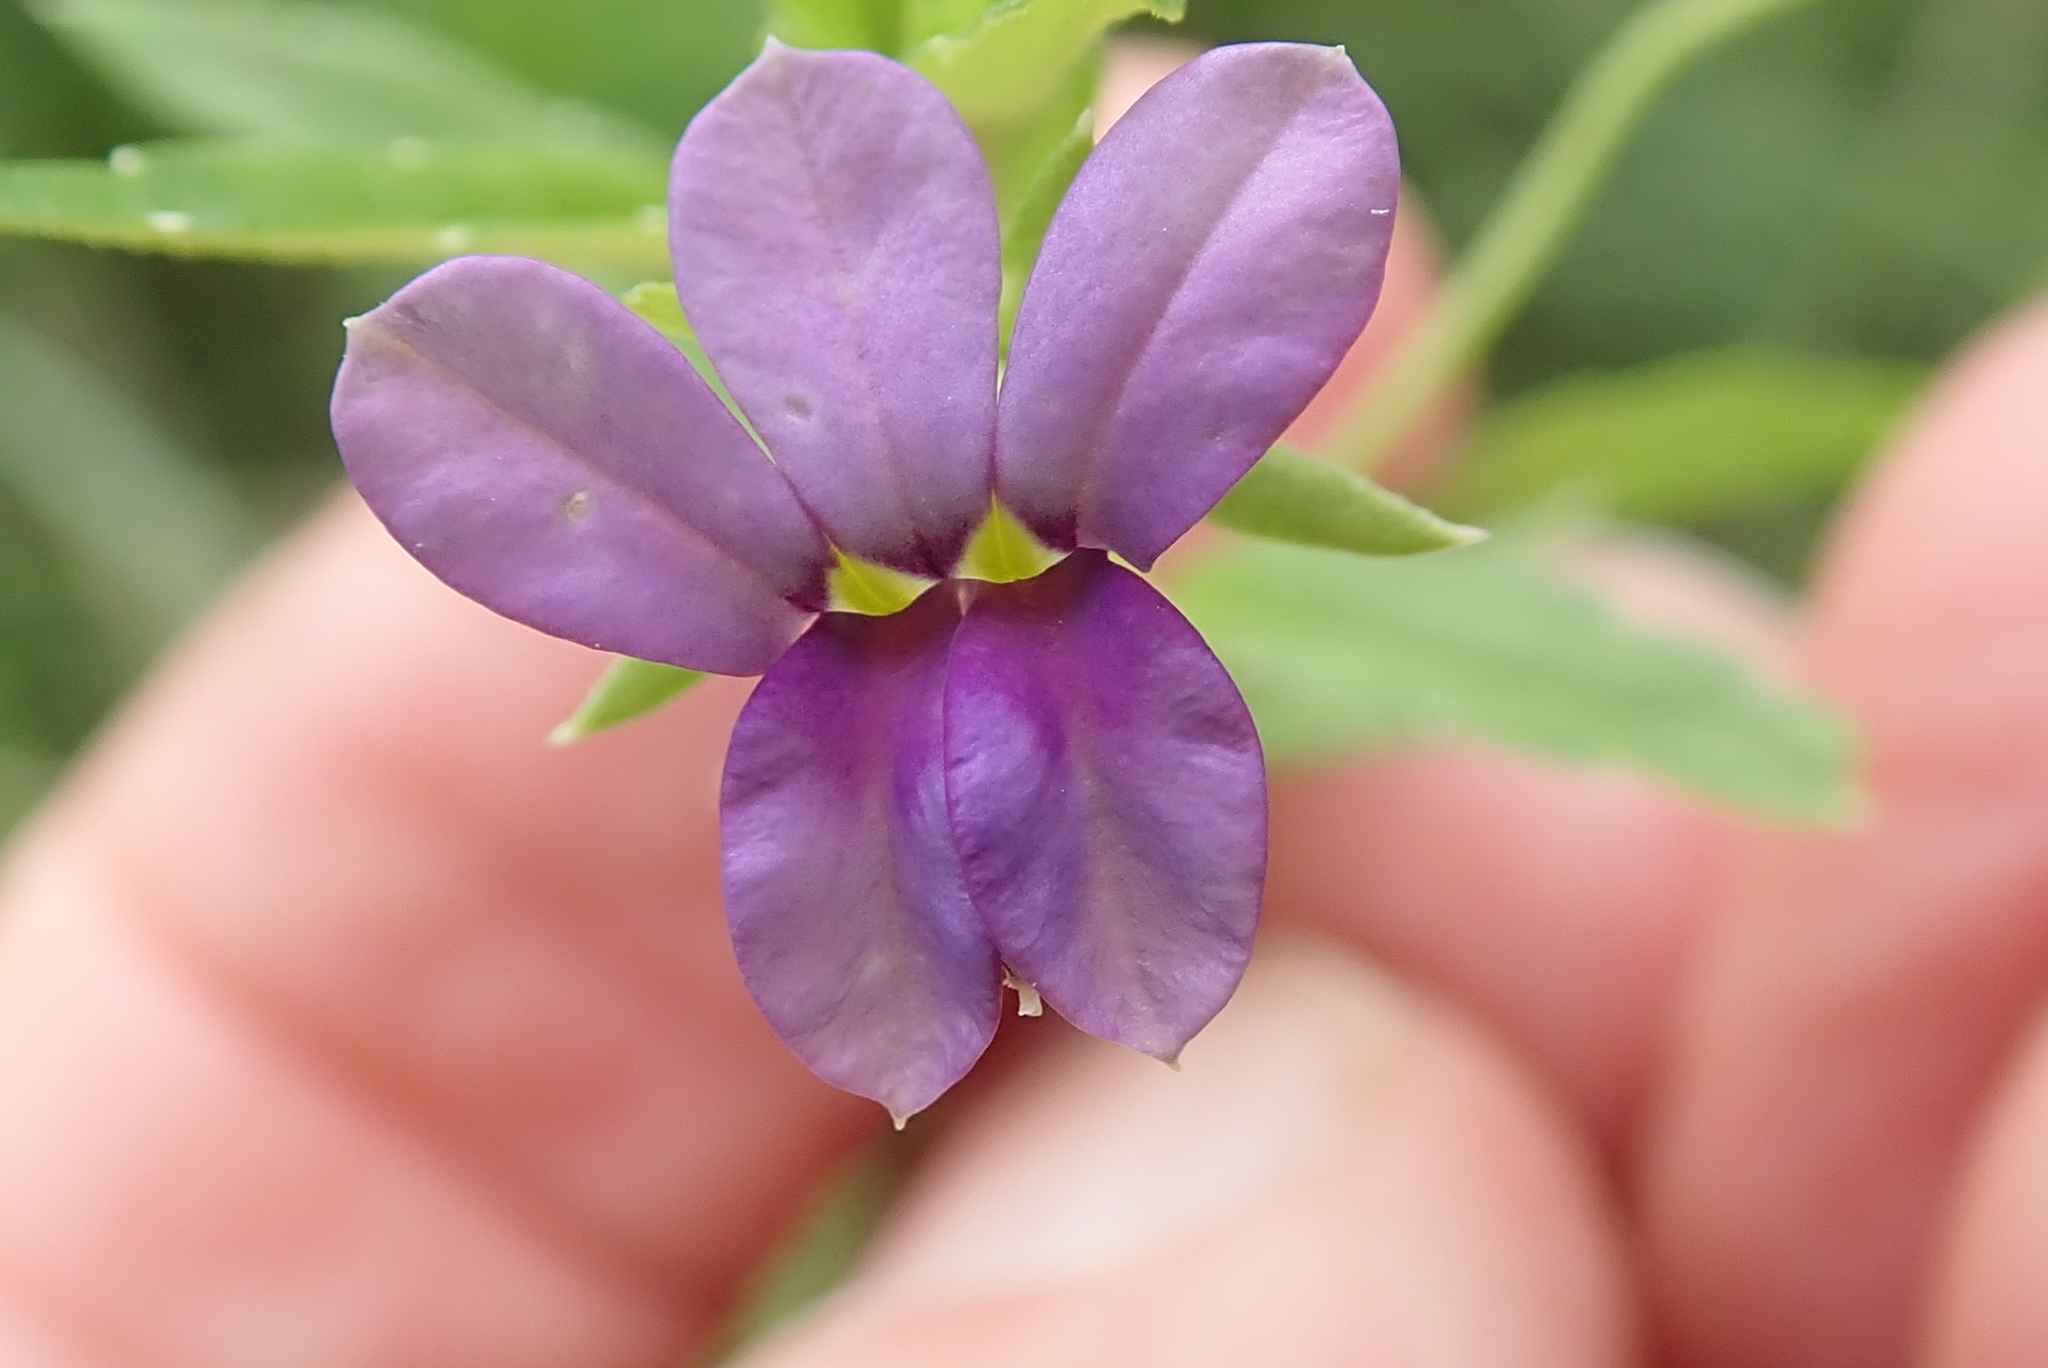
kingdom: Plantae
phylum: Tracheophyta
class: Magnoliopsida
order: Asterales
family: Campanulaceae
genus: Monopsis
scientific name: Monopsis stellarioides
